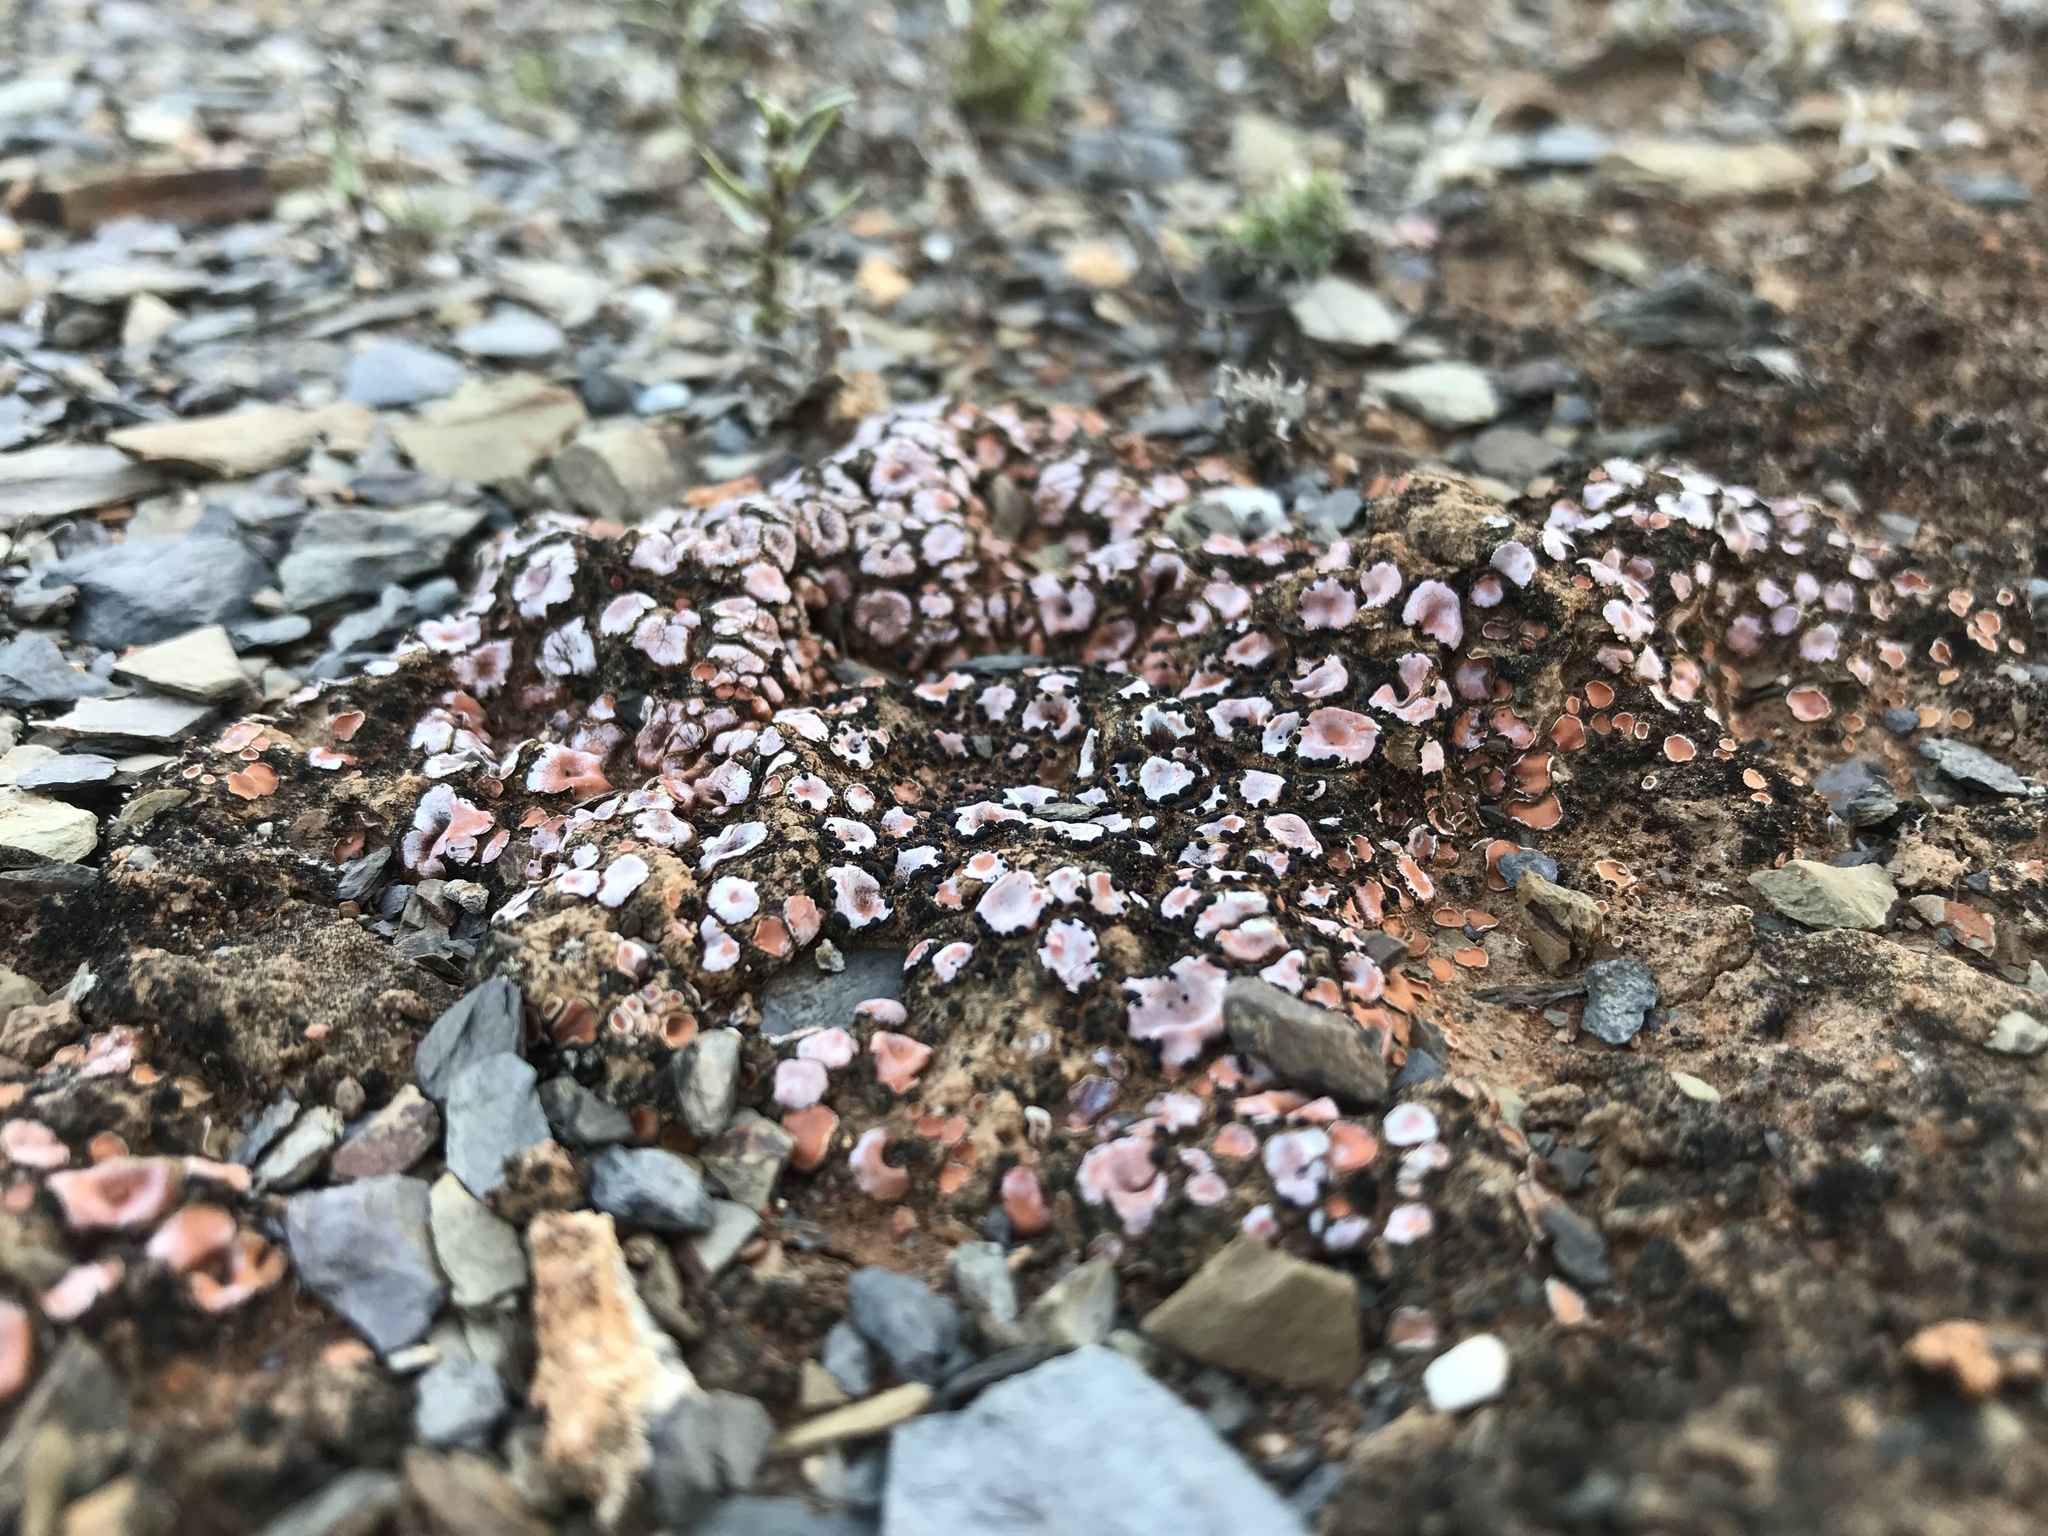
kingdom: Fungi
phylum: Ascomycota
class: Lecanoromycetes
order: Lecanorales
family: Psoraceae
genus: Psora
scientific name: Psora crenata
